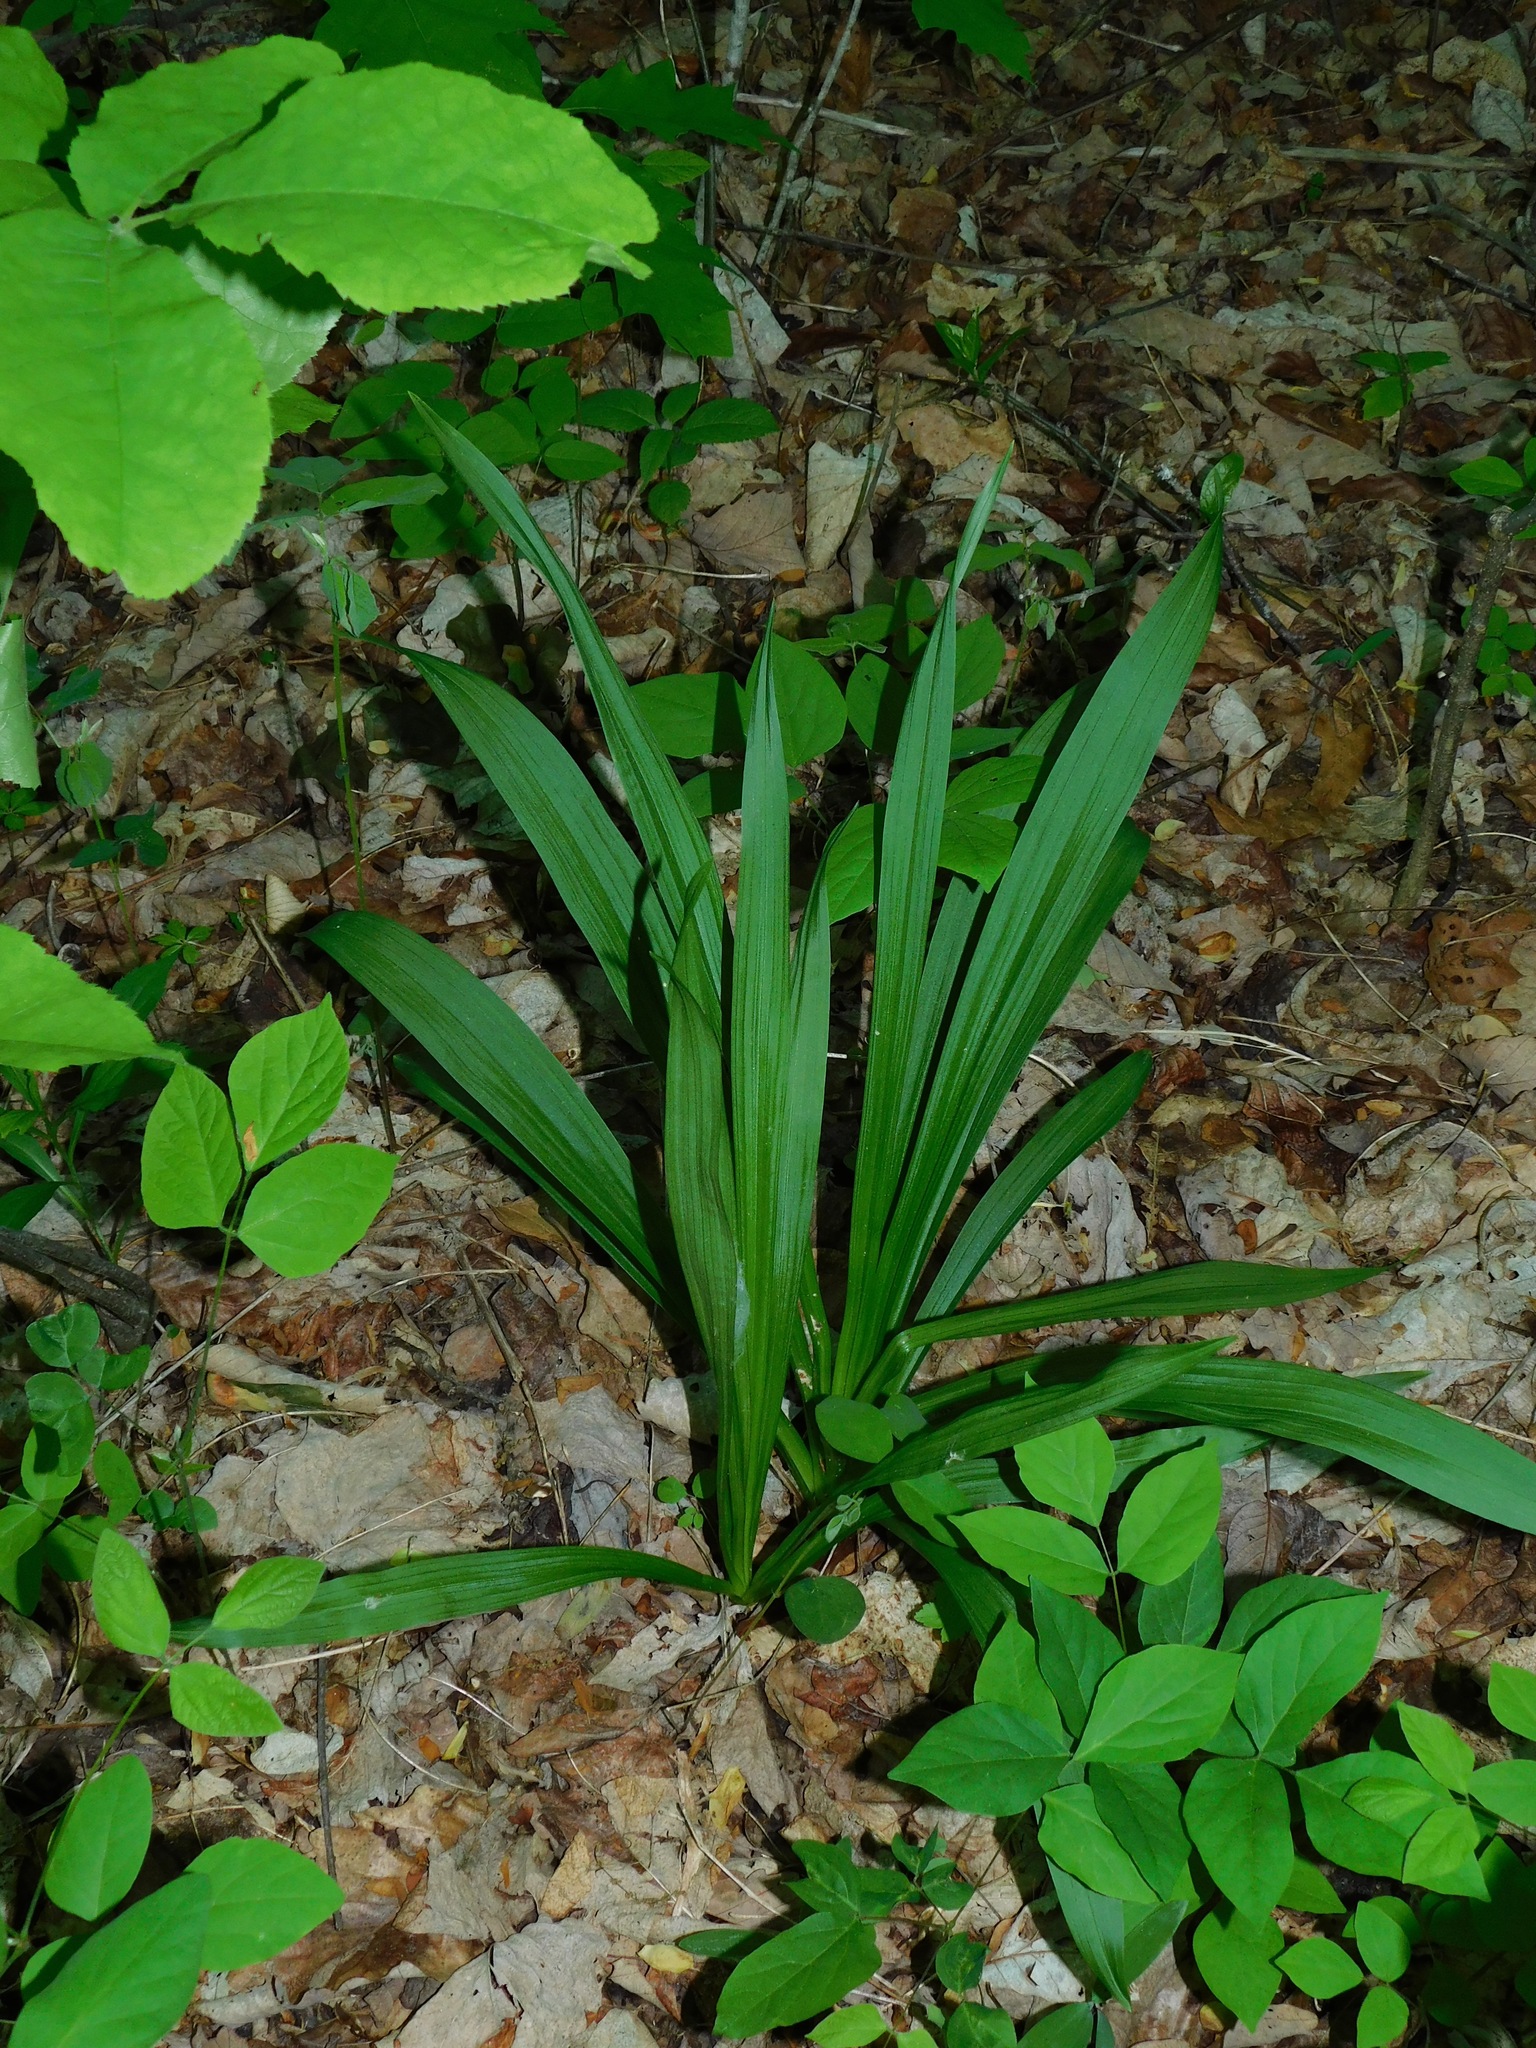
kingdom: Plantae
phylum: Tracheophyta
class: Liliopsida
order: Liliales
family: Melanthiaceae
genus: Stenanthium
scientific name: Stenanthium gramineum
